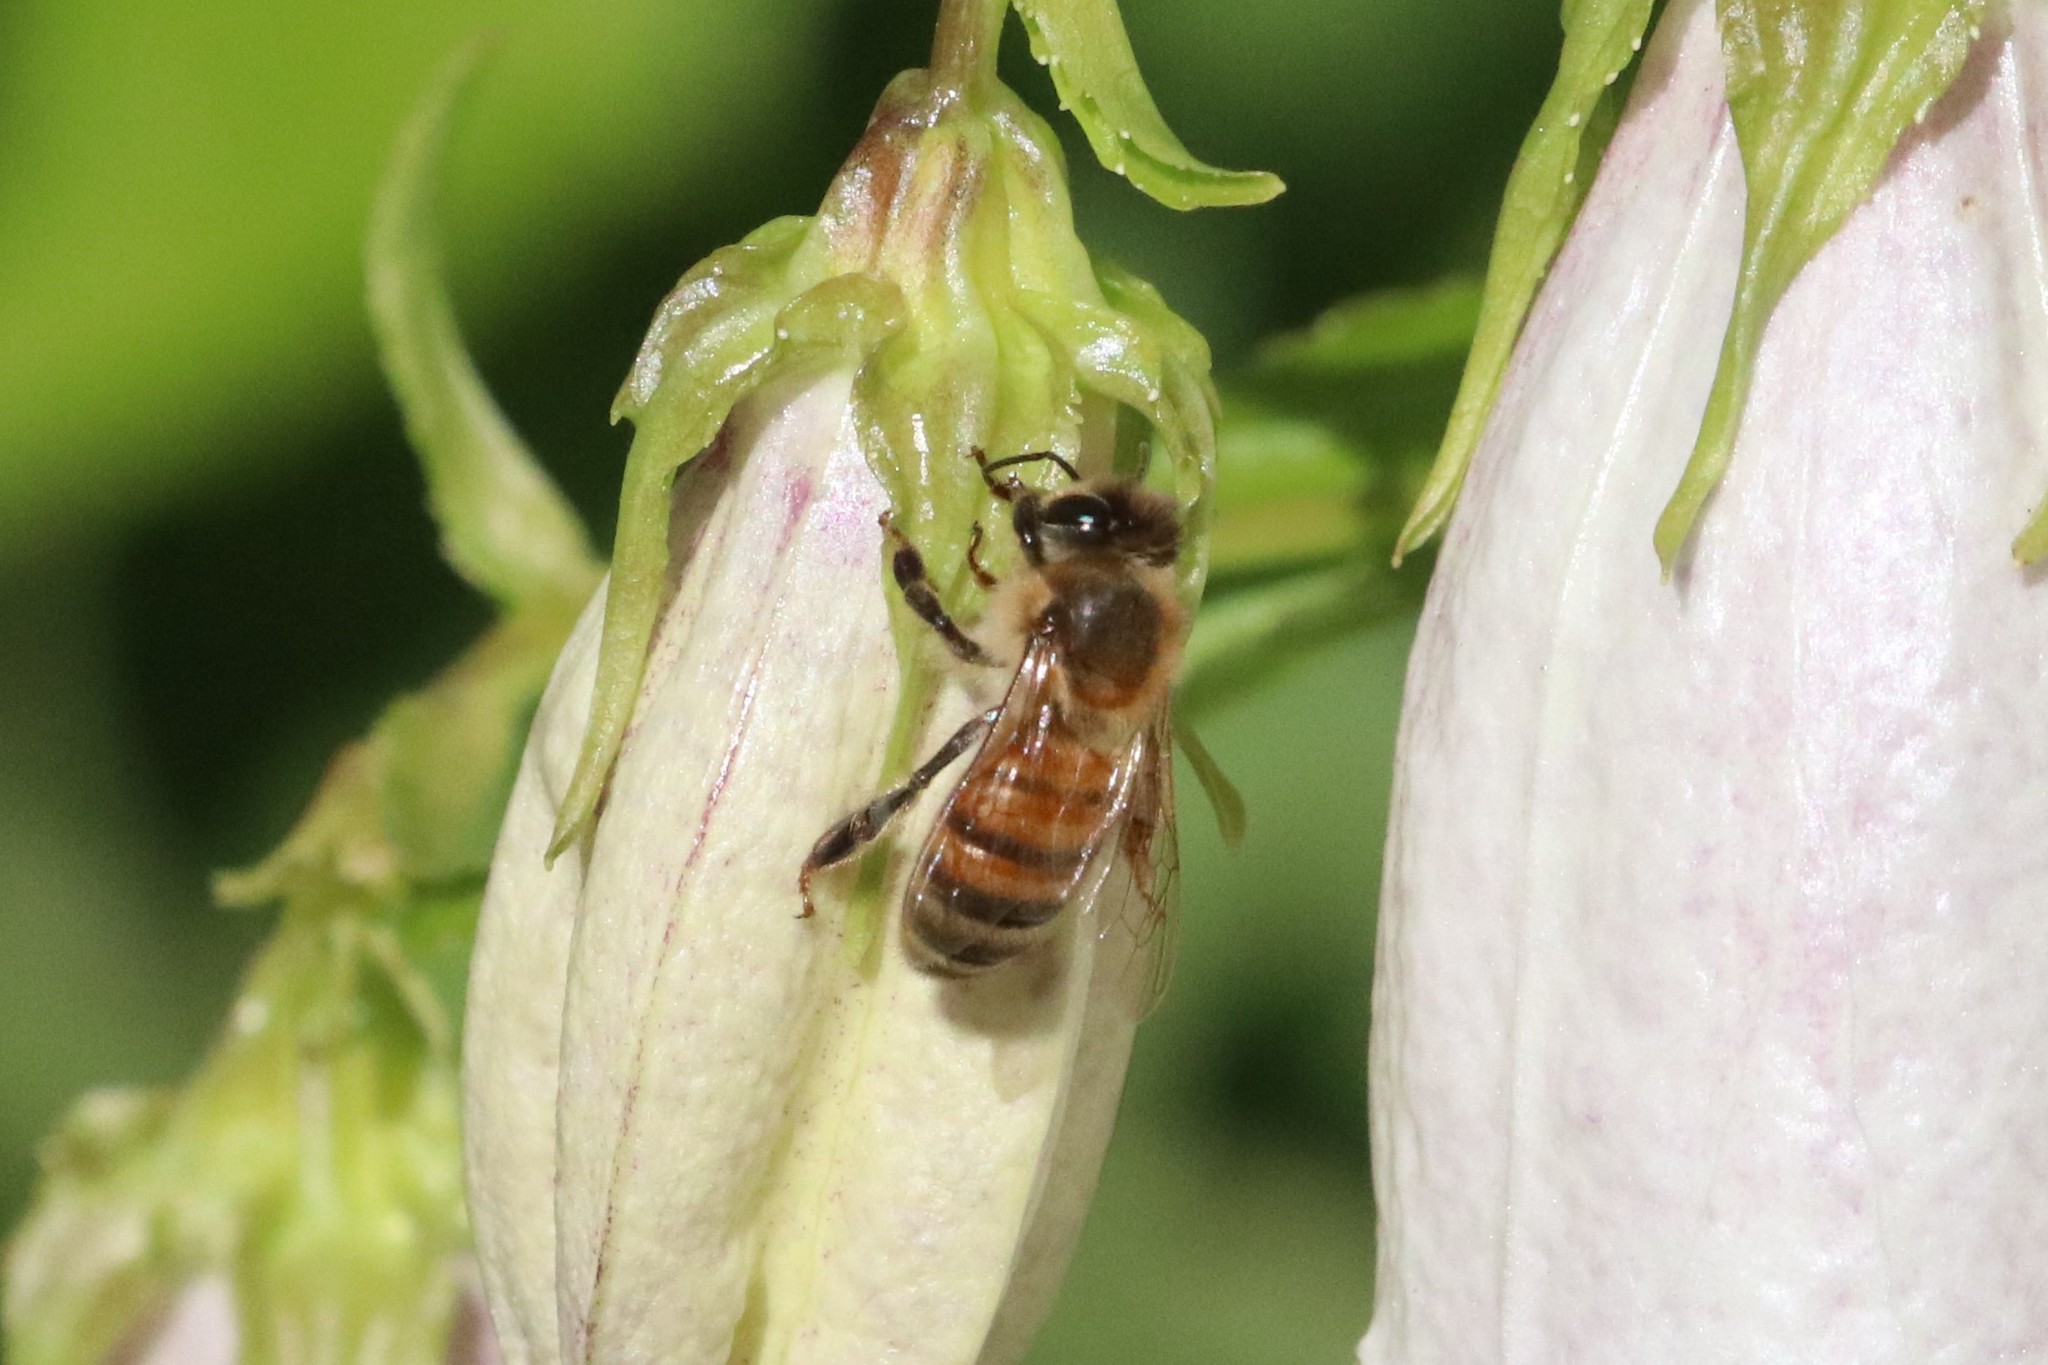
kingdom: Animalia
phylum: Arthropoda
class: Insecta
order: Hymenoptera
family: Apidae
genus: Apis
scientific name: Apis mellifera
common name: Honey bee
